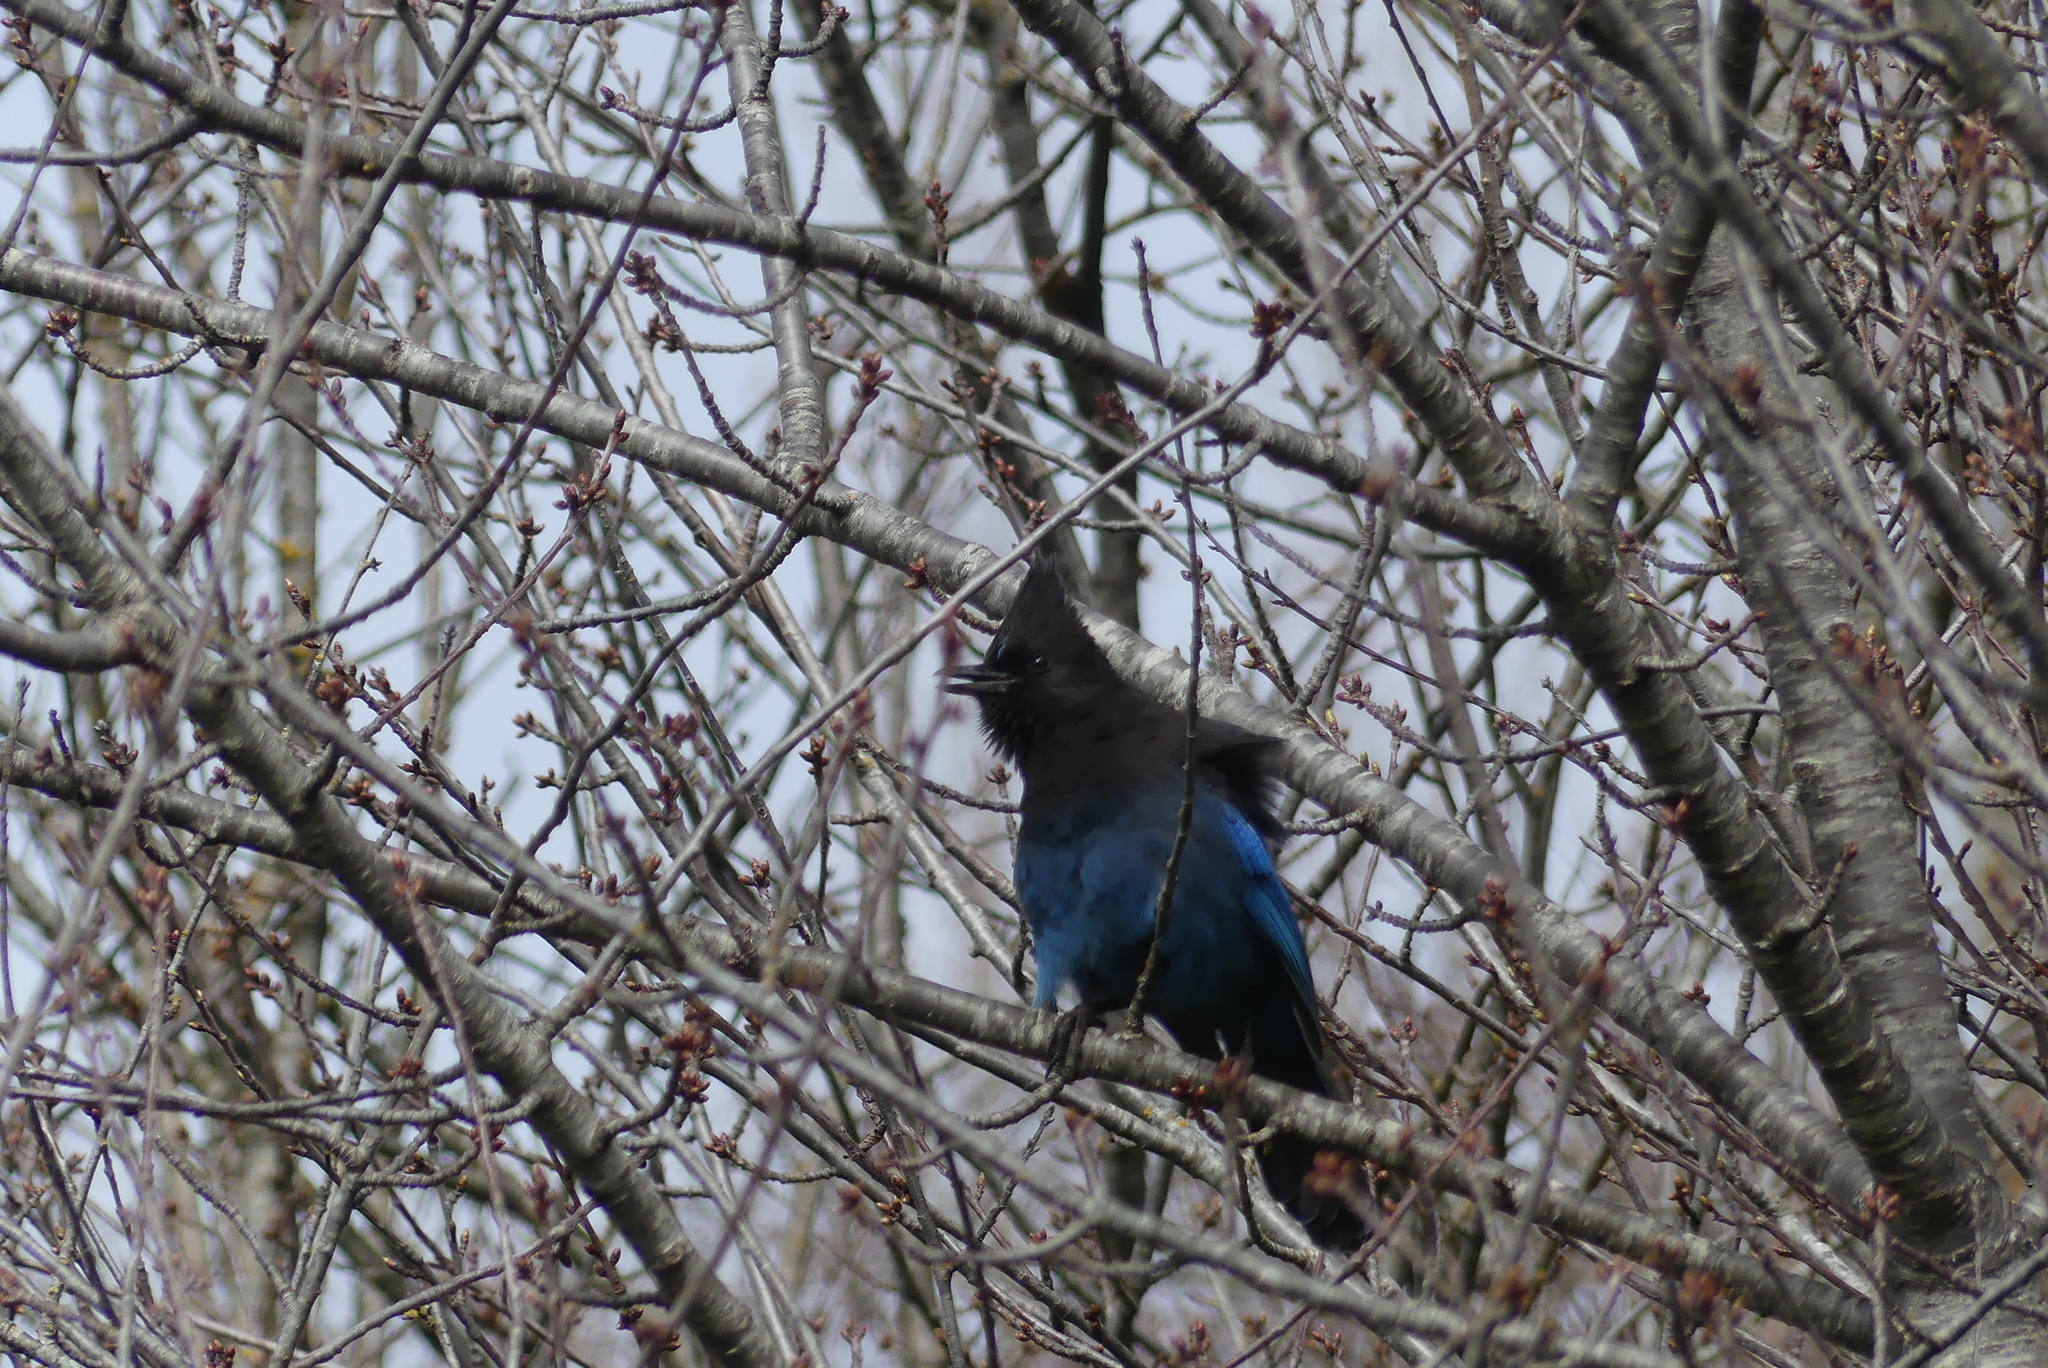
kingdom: Animalia
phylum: Chordata
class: Aves
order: Passeriformes
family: Corvidae
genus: Cyanocitta
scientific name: Cyanocitta stelleri
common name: Steller's jay
